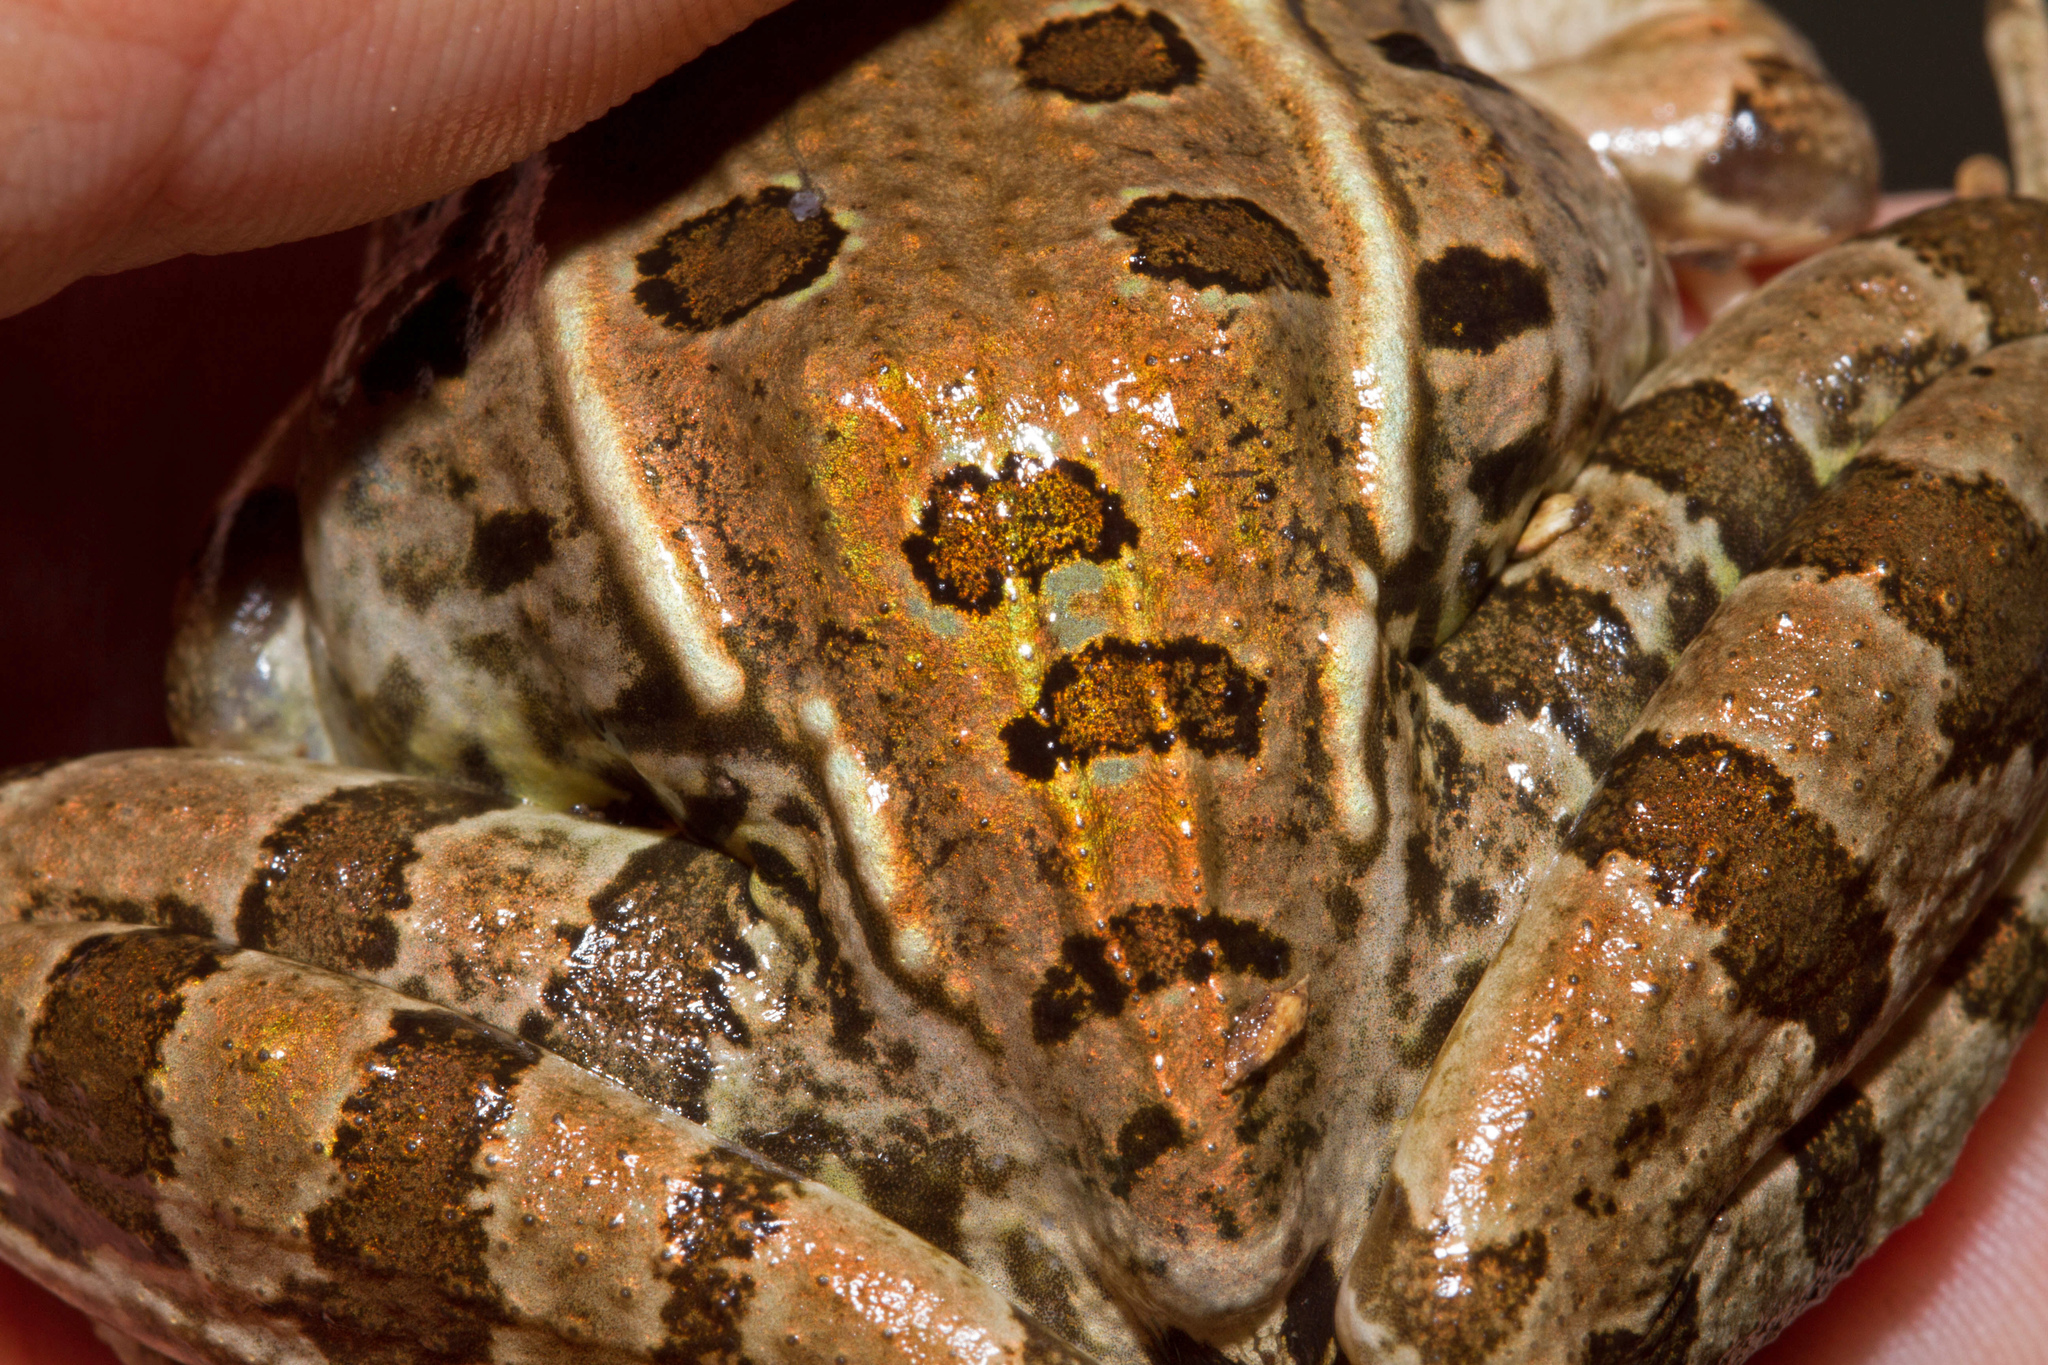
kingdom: Animalia
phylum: Chordata
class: Amphibia
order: Anura
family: Ranidae
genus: Lithobates
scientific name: Lithobates berlandieri
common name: Rio grande leopard frog
